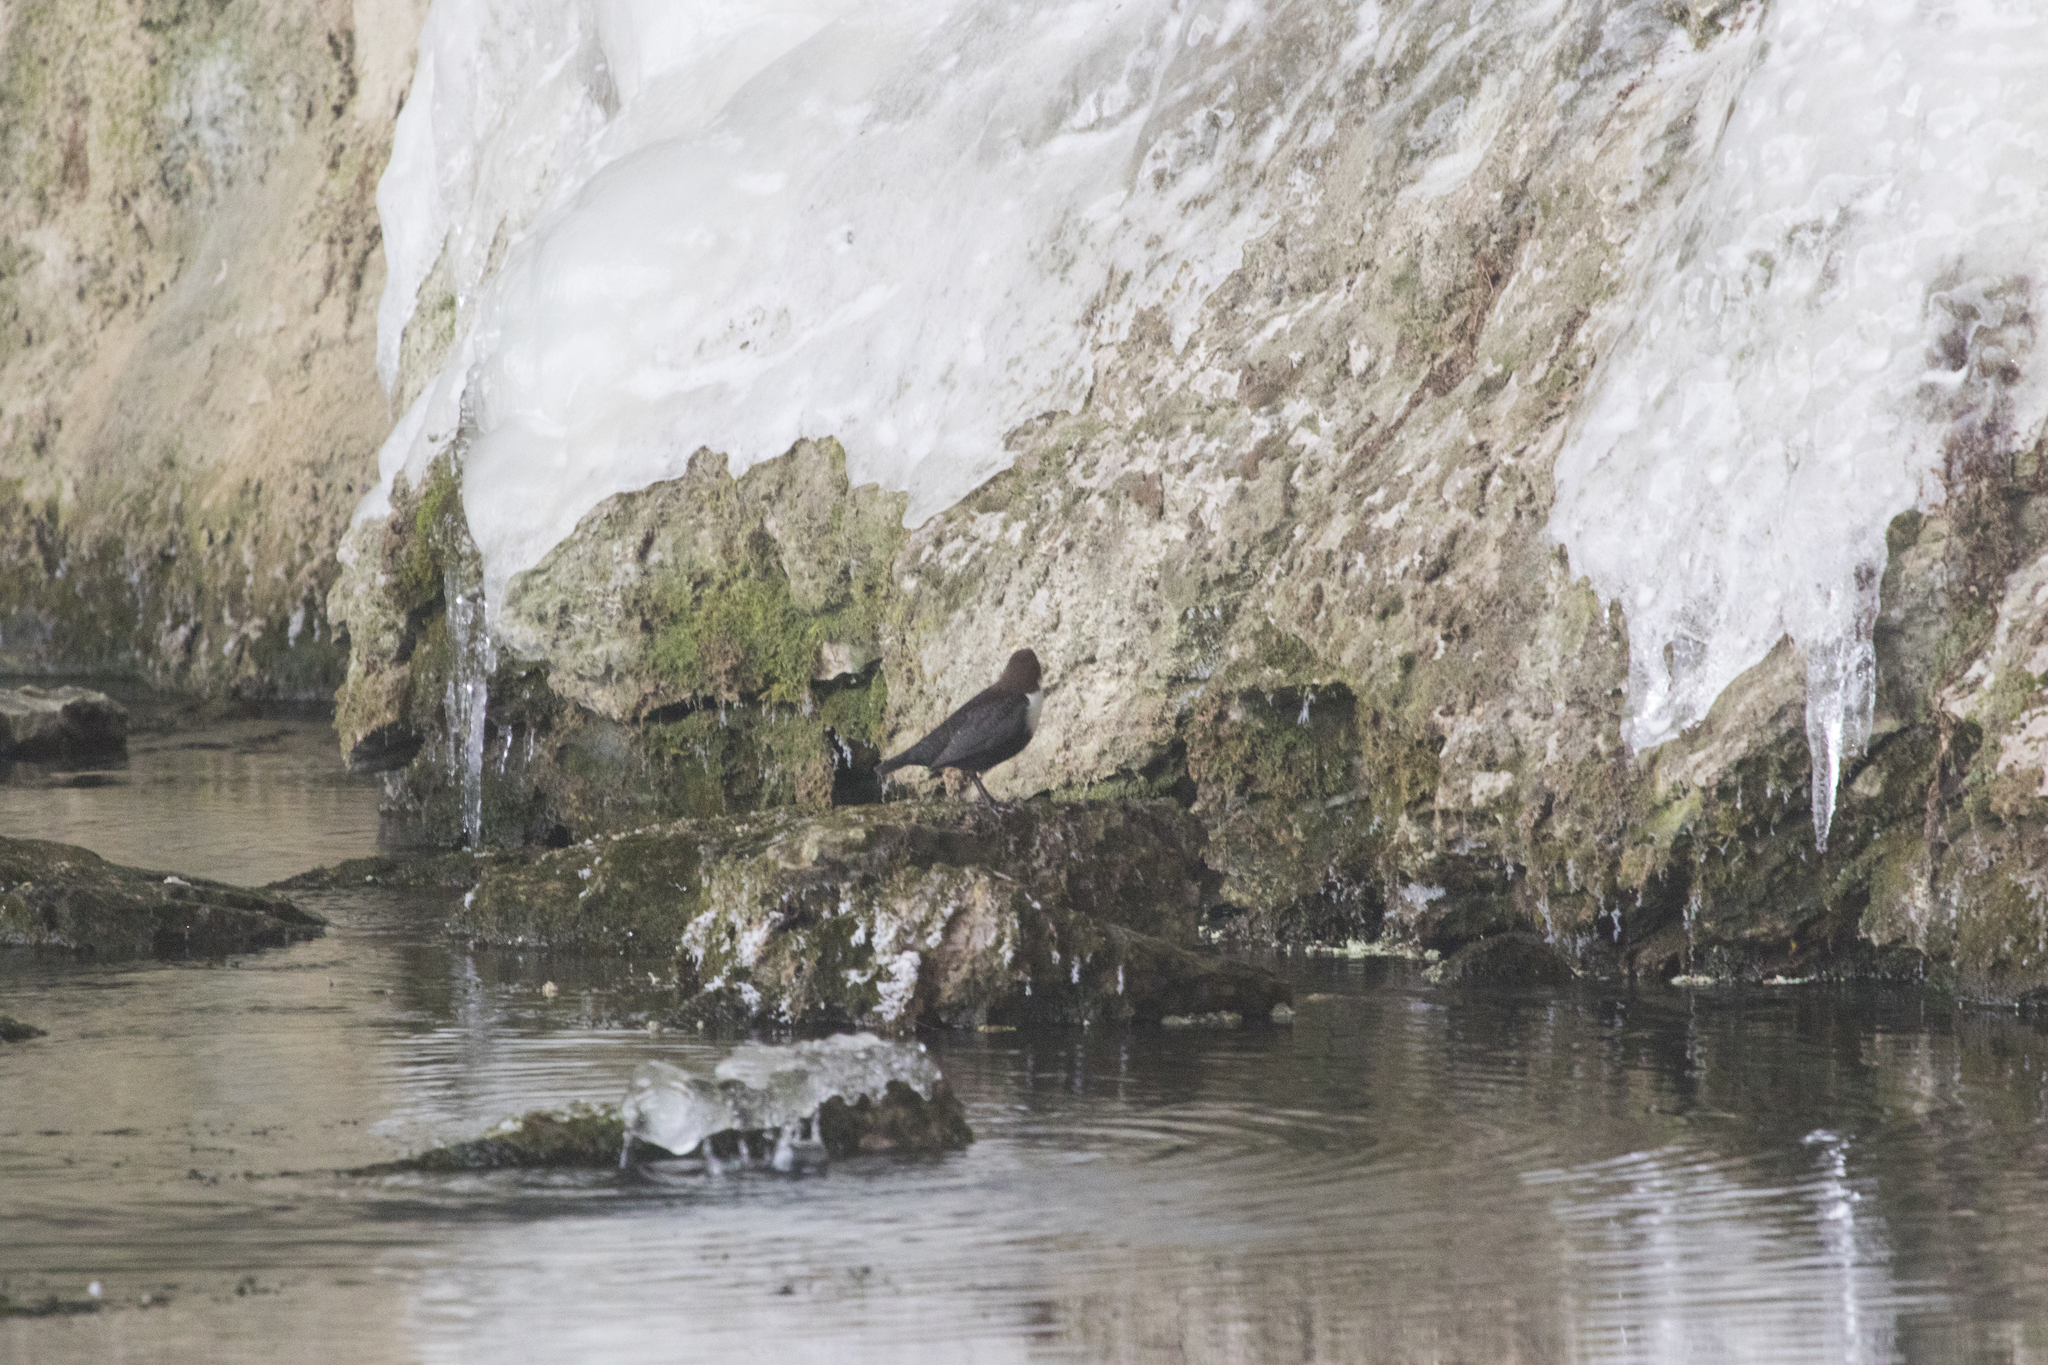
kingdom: Animalia
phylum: Chordata
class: Aves
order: Passeriformes
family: Cinclidae
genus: Cinclus
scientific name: Cinclus cinclus
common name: White-throated dipper
